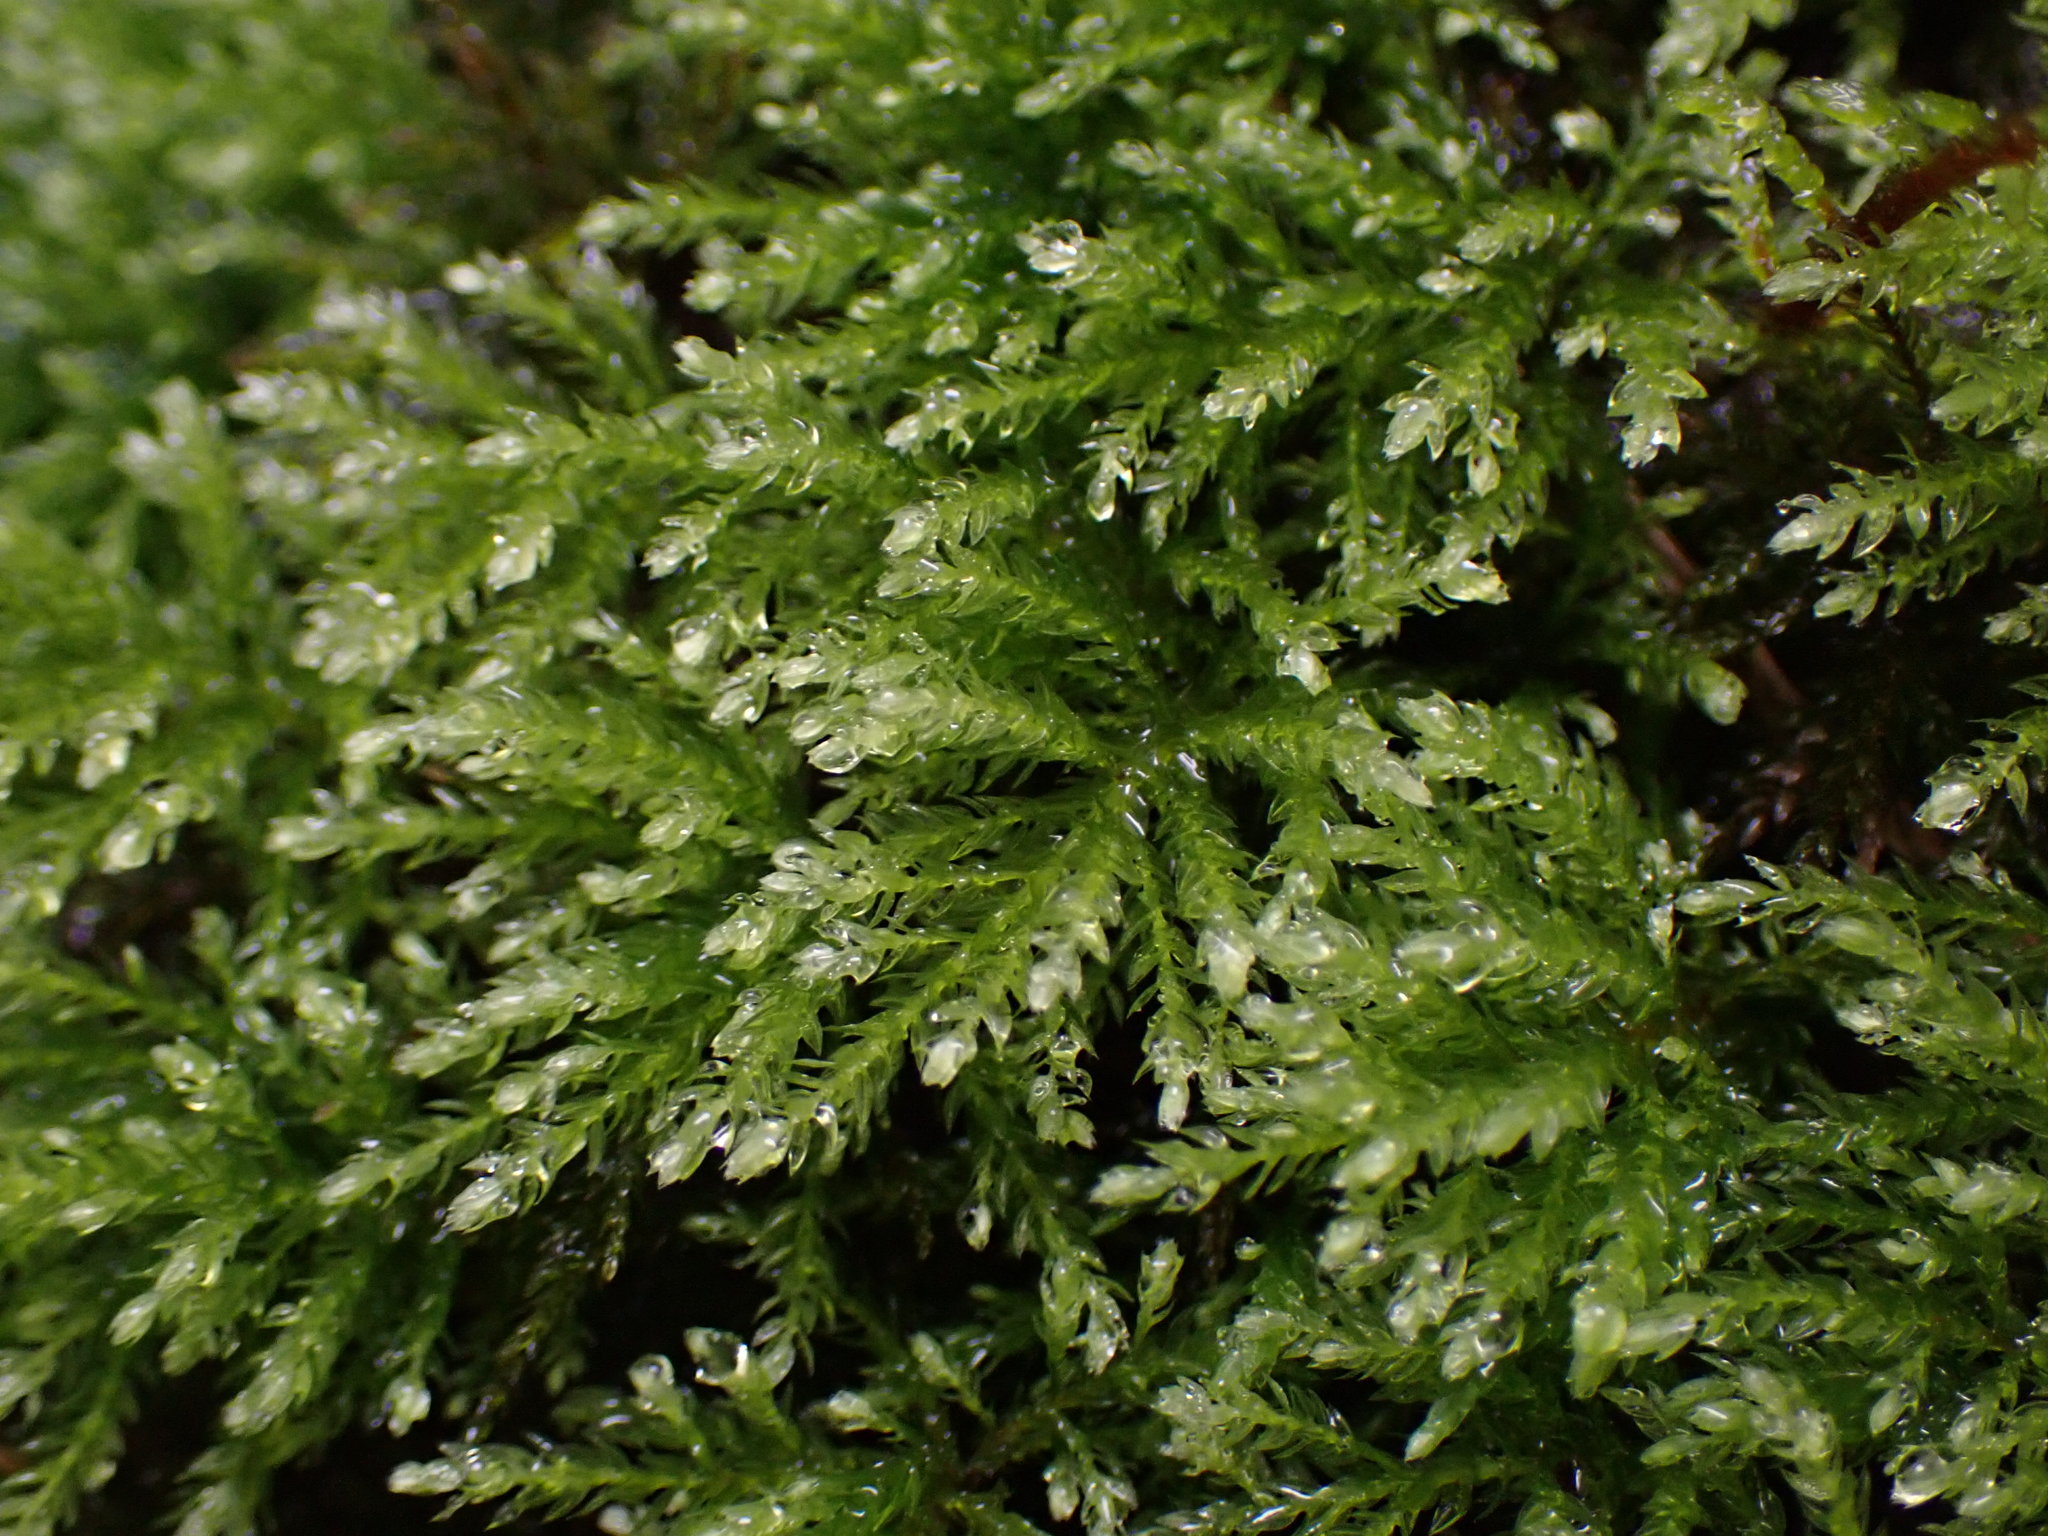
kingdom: Plantae
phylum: Bryophyta
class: Bryopsida
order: Bryales
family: Mniaceae
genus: Leucolepis
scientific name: Leucolepis acanthoneura
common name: Leucolepis umbrella moss
